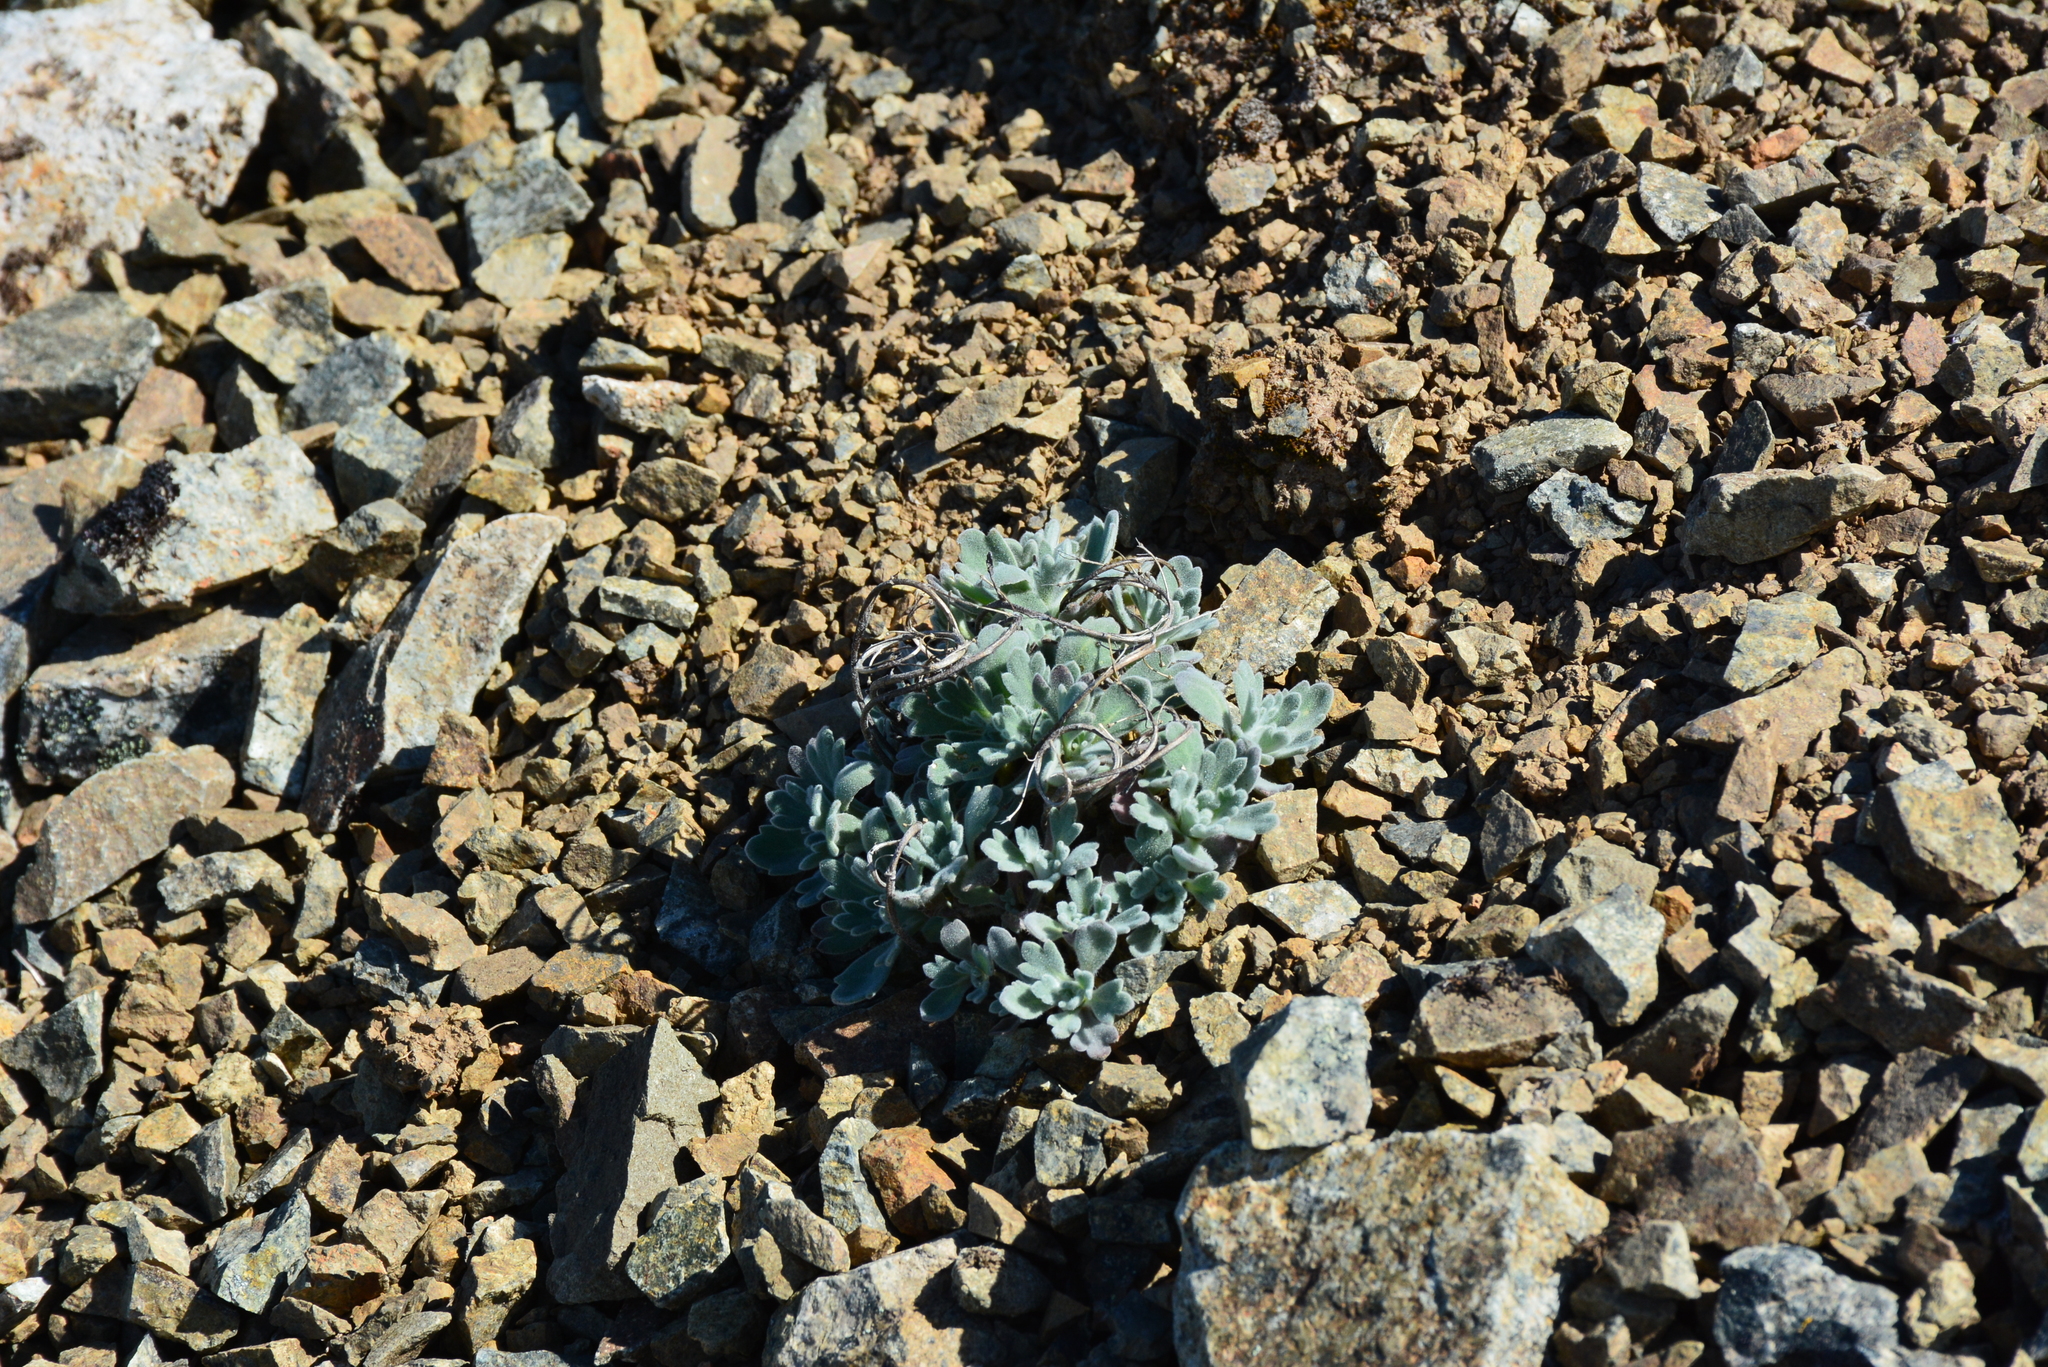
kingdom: Plantae
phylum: Tracheophyta
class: Magnoliopsida
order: Brassicales
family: Brassicaceae
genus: Smelowskia
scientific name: Smelowskia parryoides
